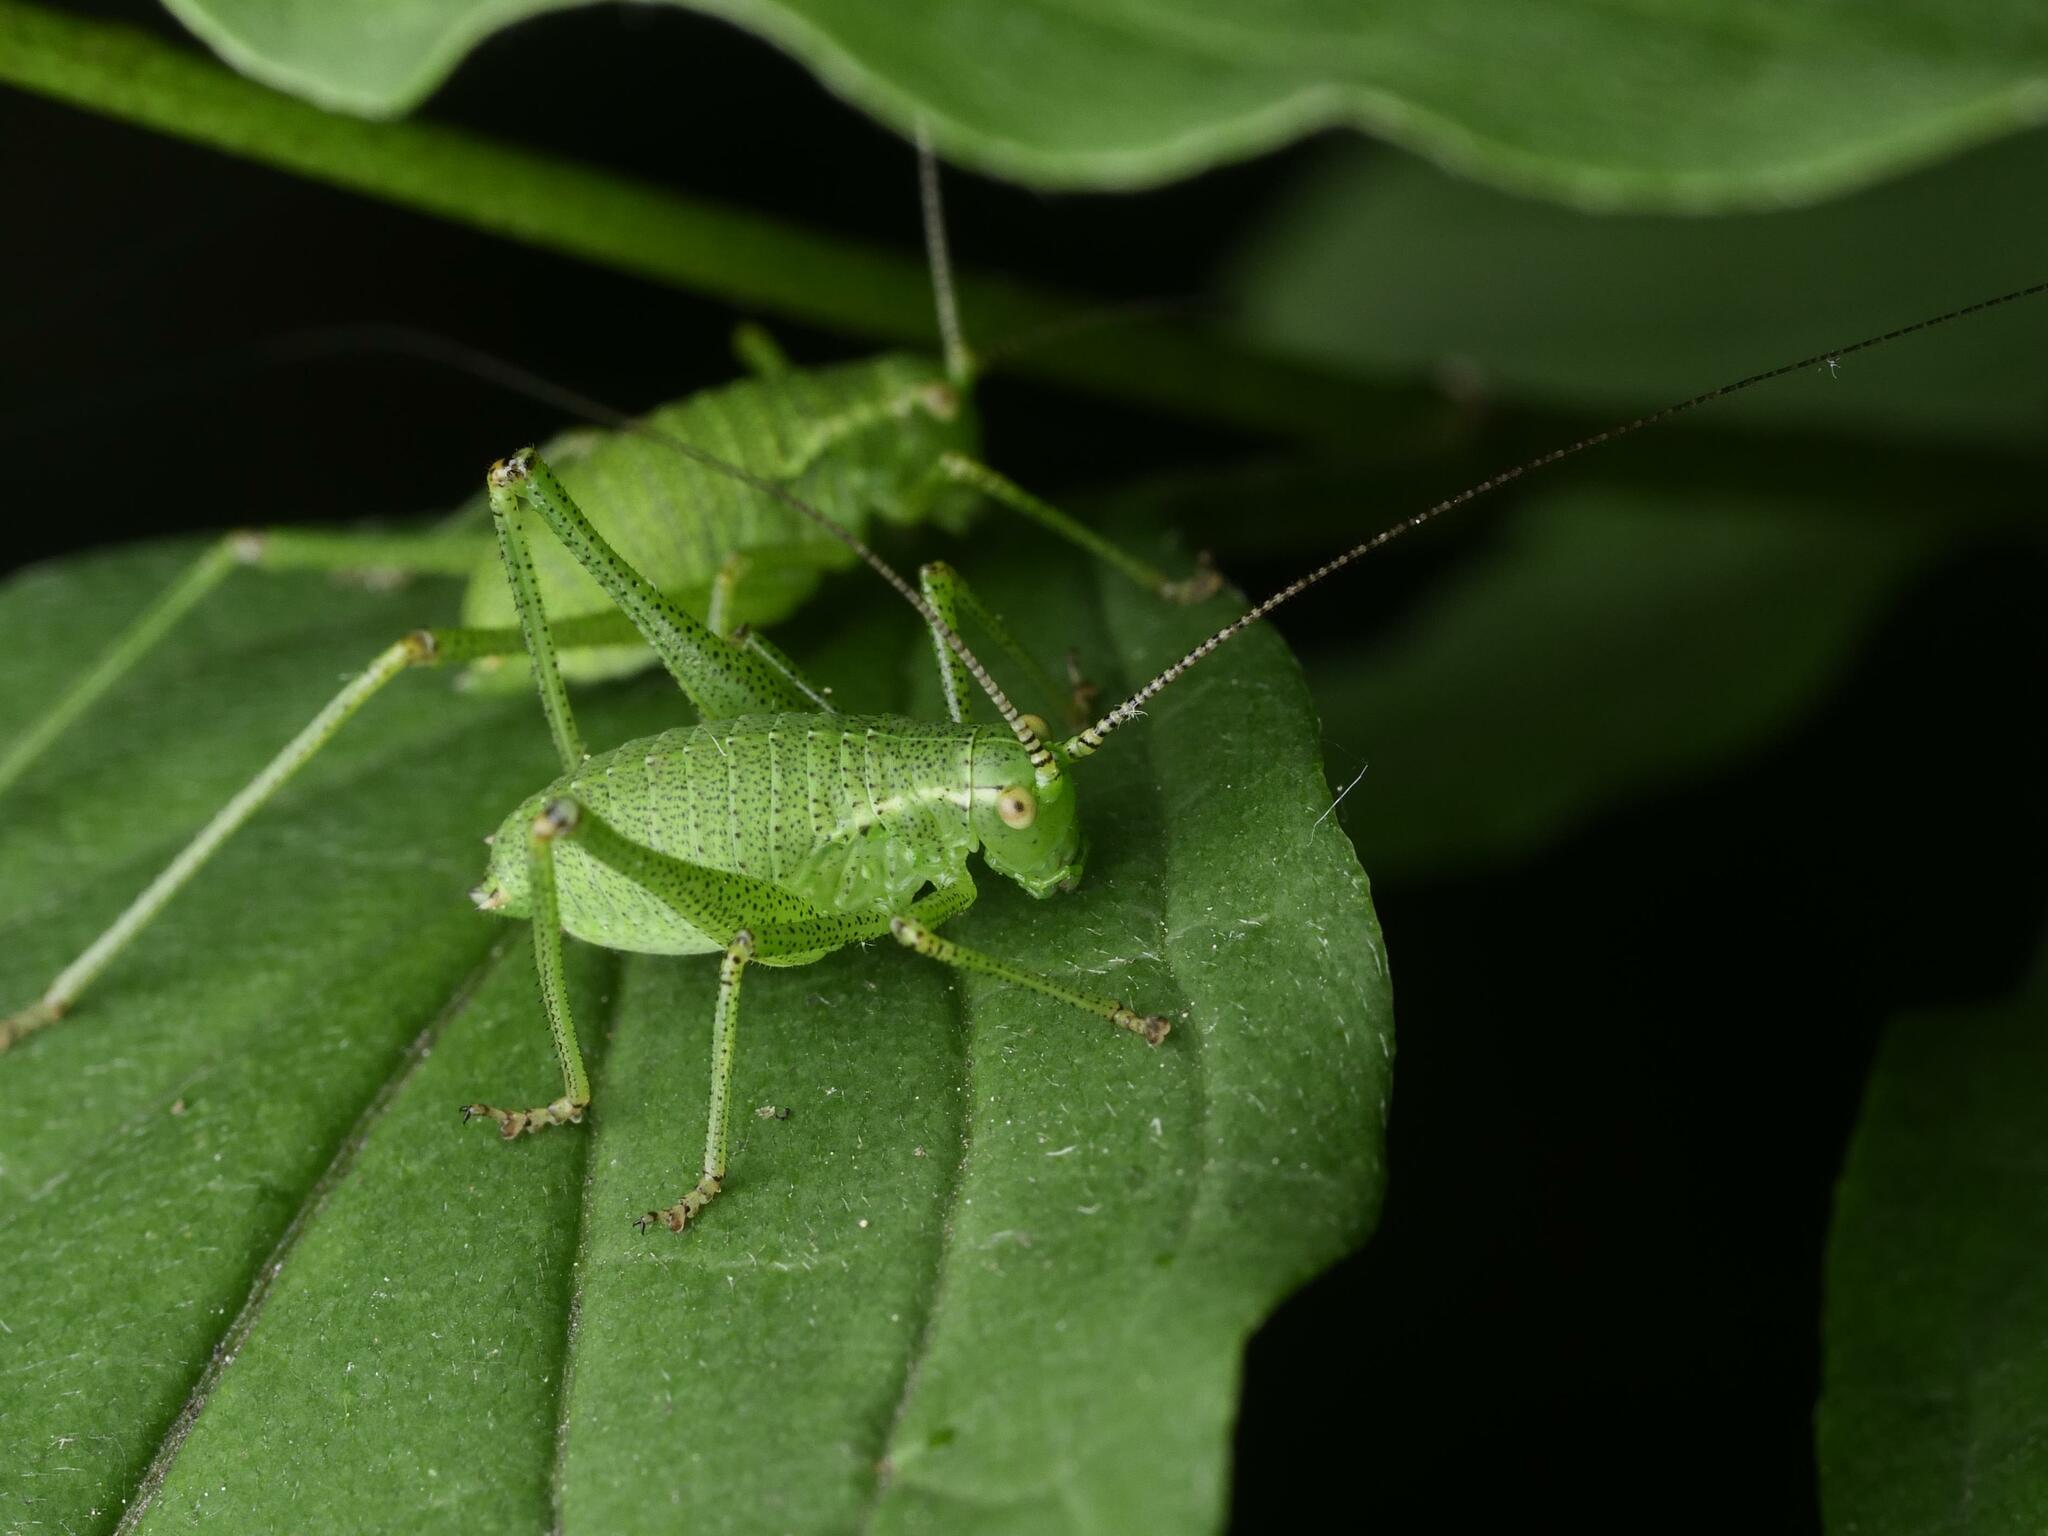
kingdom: Animalia
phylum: Arthropoda
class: Insecta
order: Orthoptera
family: Tettigoniidae
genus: Leptophyes
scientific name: Leptophyes punctatissima
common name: Speckled bush-cricket
